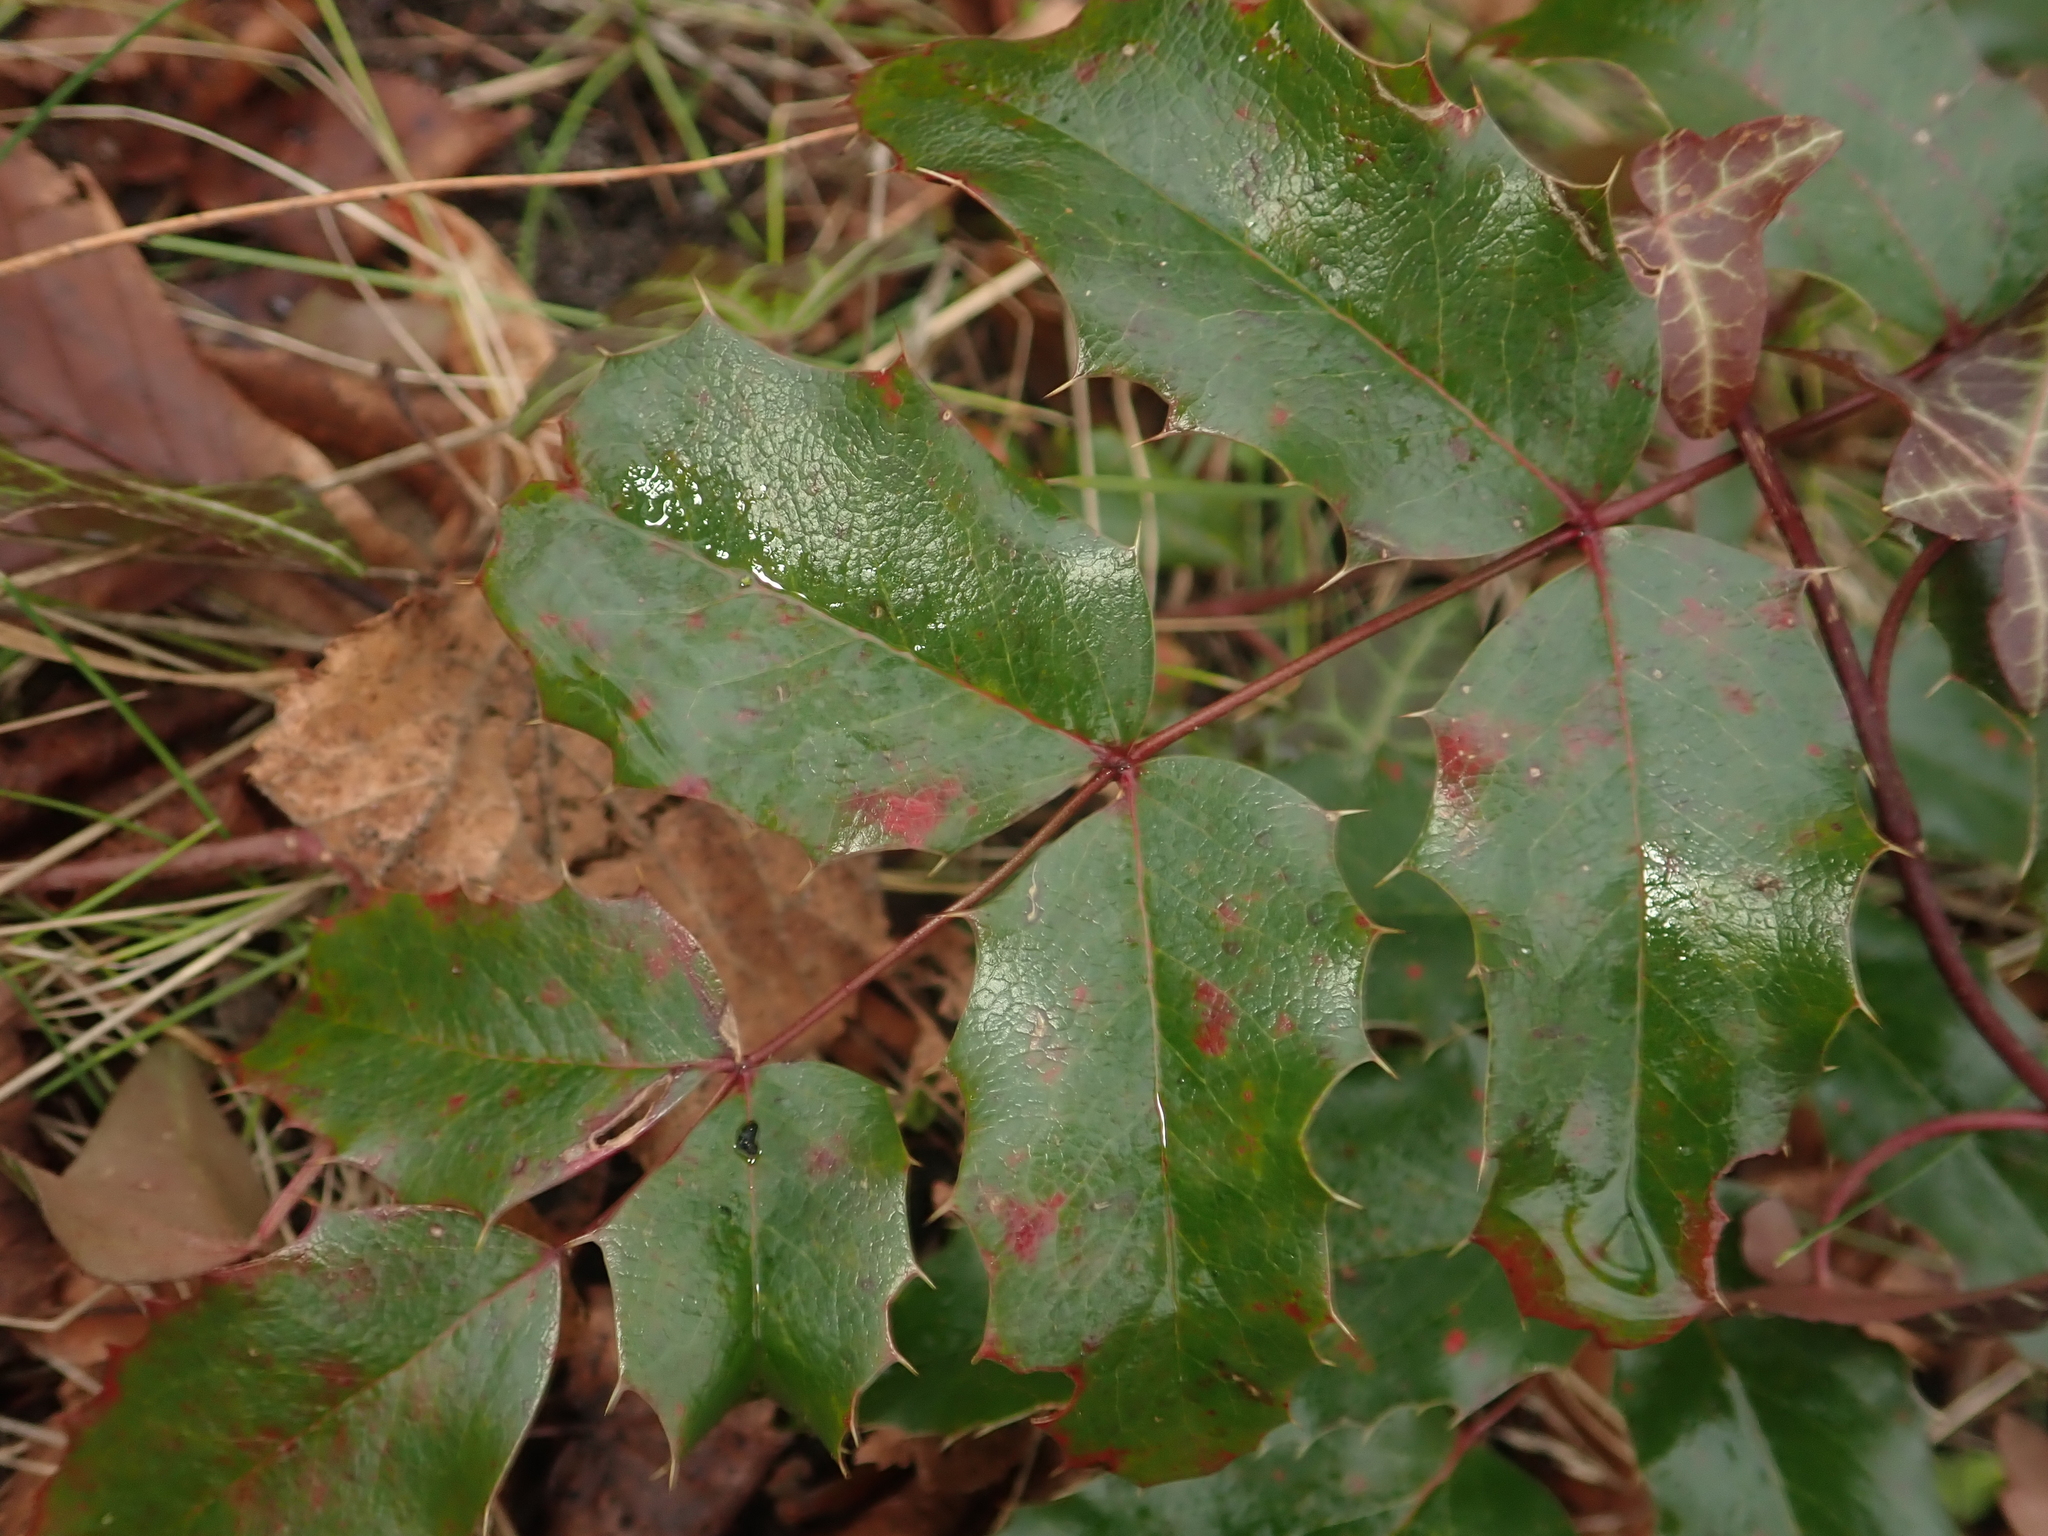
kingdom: Plantae
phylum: Tracheophyta
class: Magnoliopsida
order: Ranunculales
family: Berberidaceae
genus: Mahonia
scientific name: Mahonia aquifolium
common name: Oregon-grape
